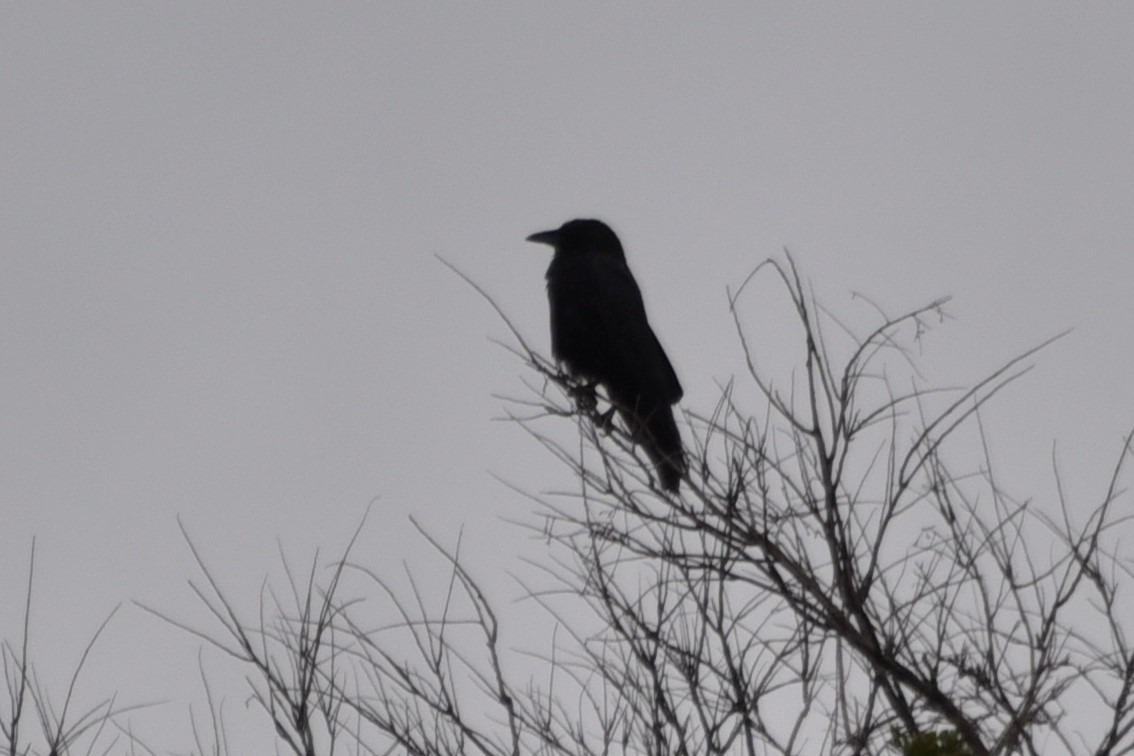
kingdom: Animalia
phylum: Chordata
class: Aves
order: Passeriformes
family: Corvidae
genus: Corvus
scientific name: Corvus brachyrhynchos
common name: American crow
